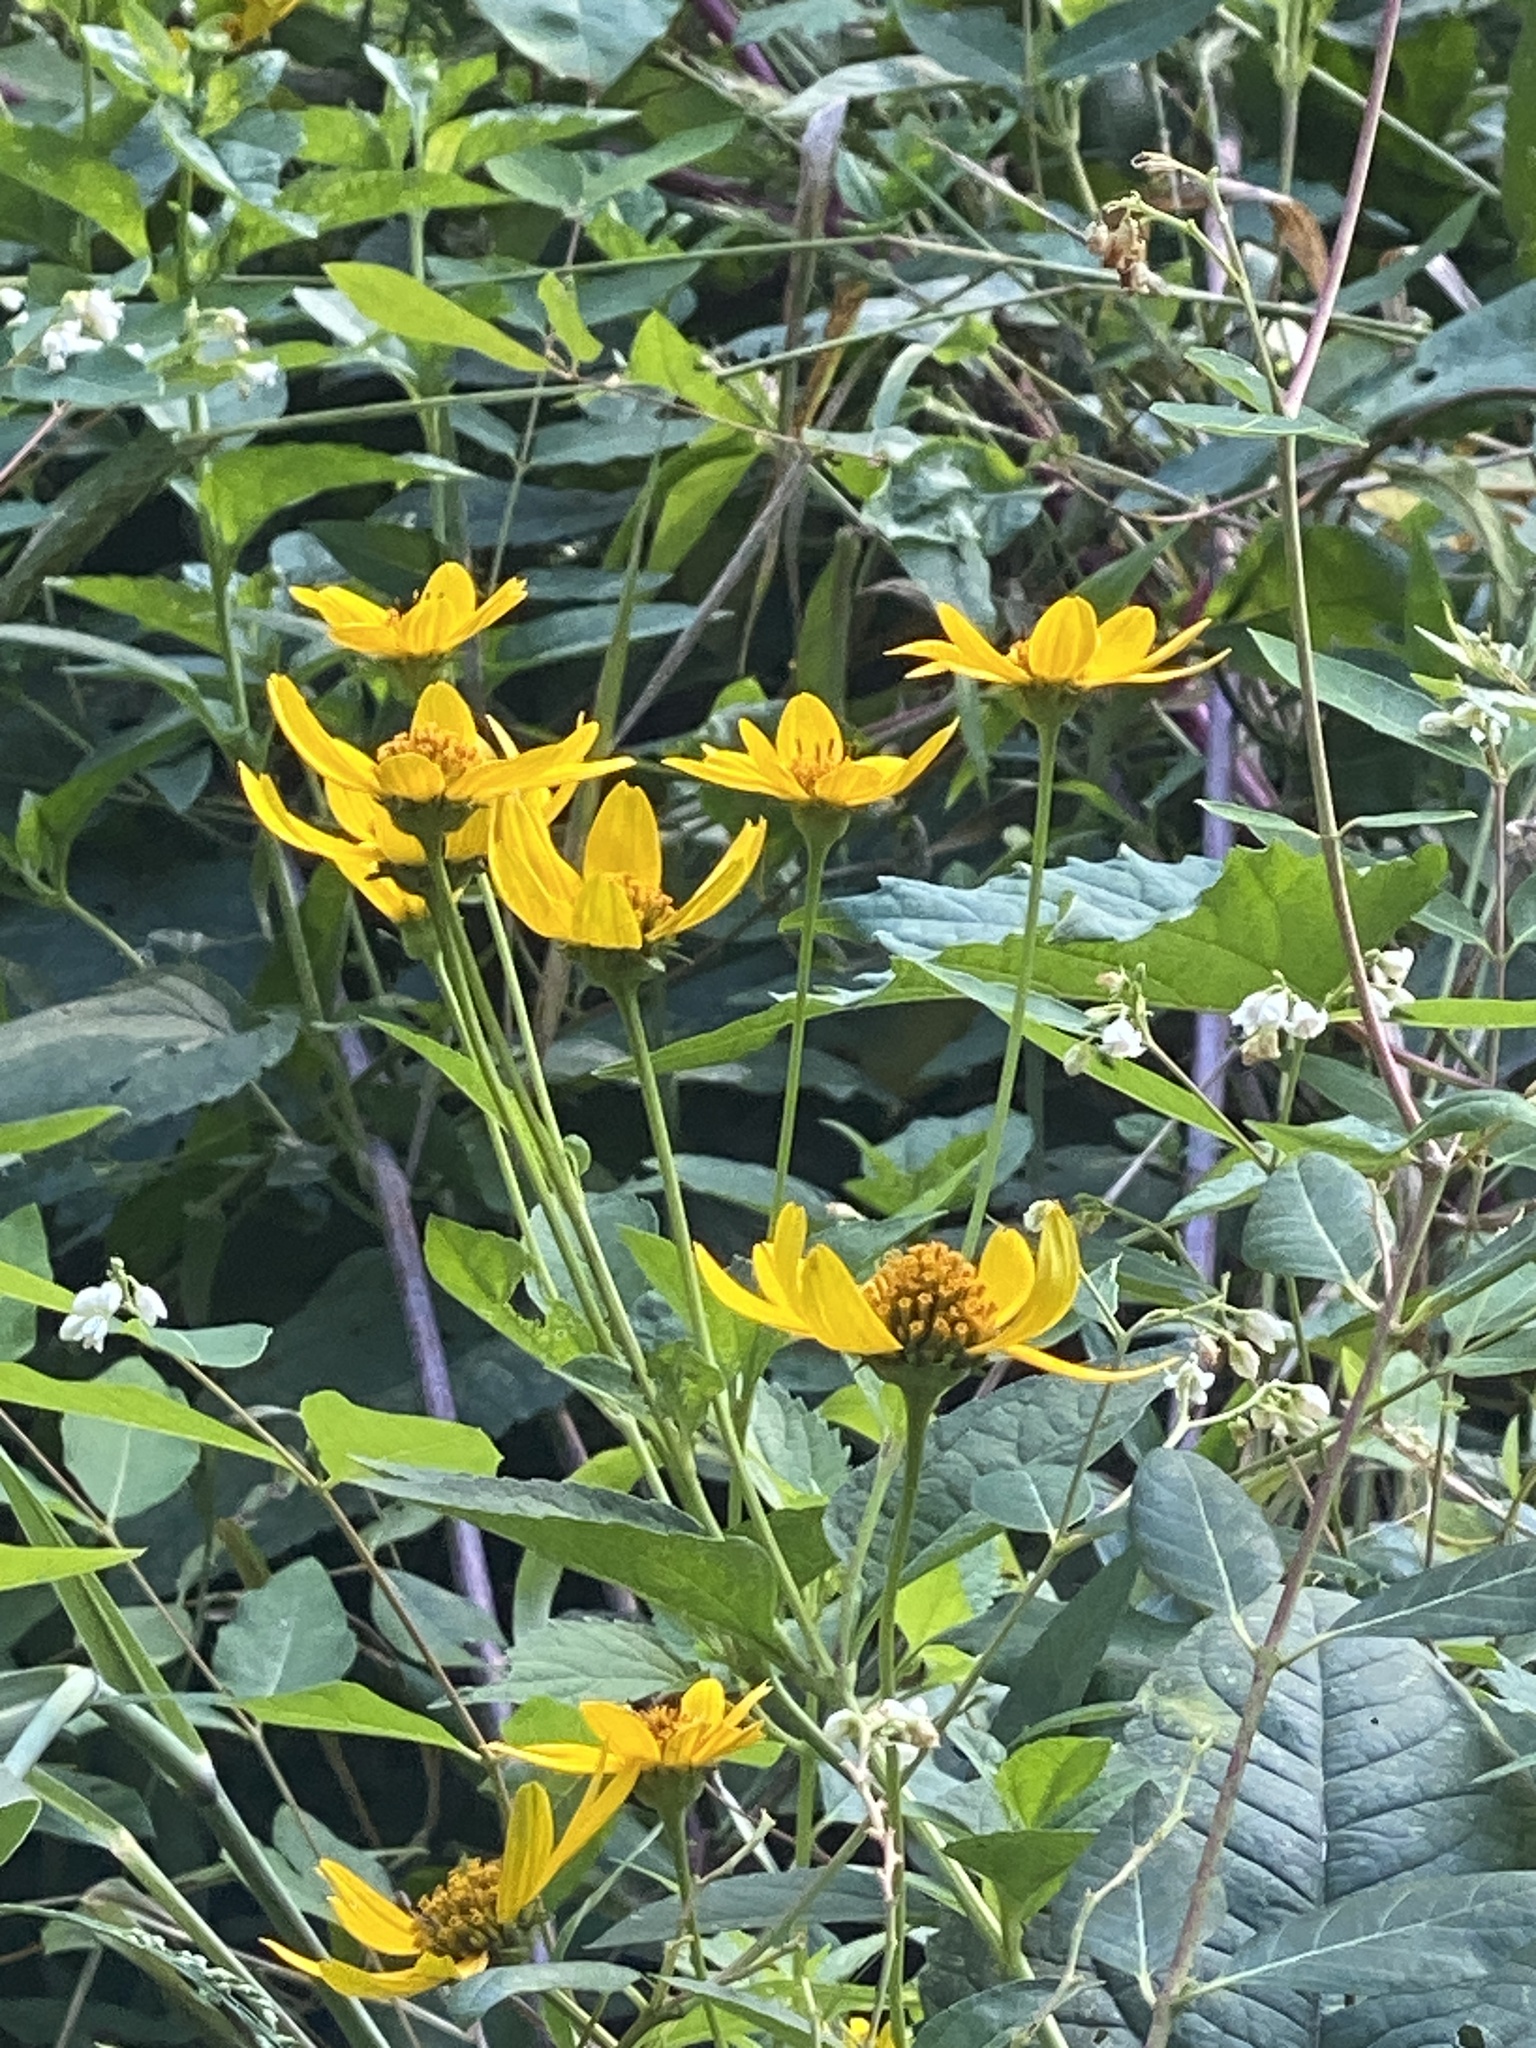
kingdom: Plantae
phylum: Tracheophyta
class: Magnoliopsida
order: Asterales
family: Asteraceae
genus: Heliopsis
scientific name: Heliopsis helianthoides
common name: False sunflower
